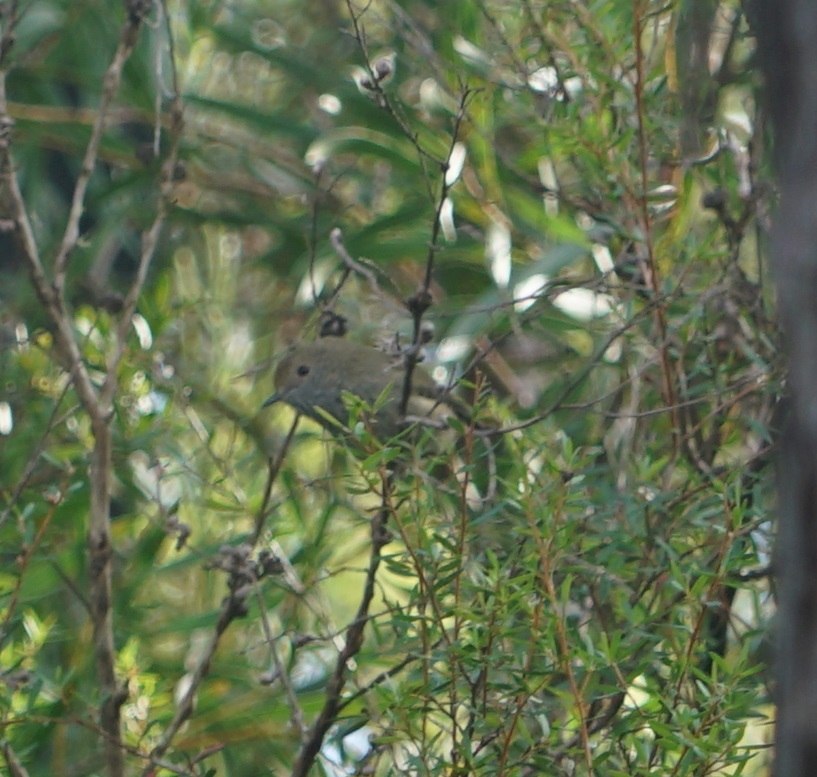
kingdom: Animalia
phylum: Chordata
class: Aves
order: Passeriformes
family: Acanthizidae
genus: Acanthiza
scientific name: Acanthiza pusilla
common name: Brown thornbill
